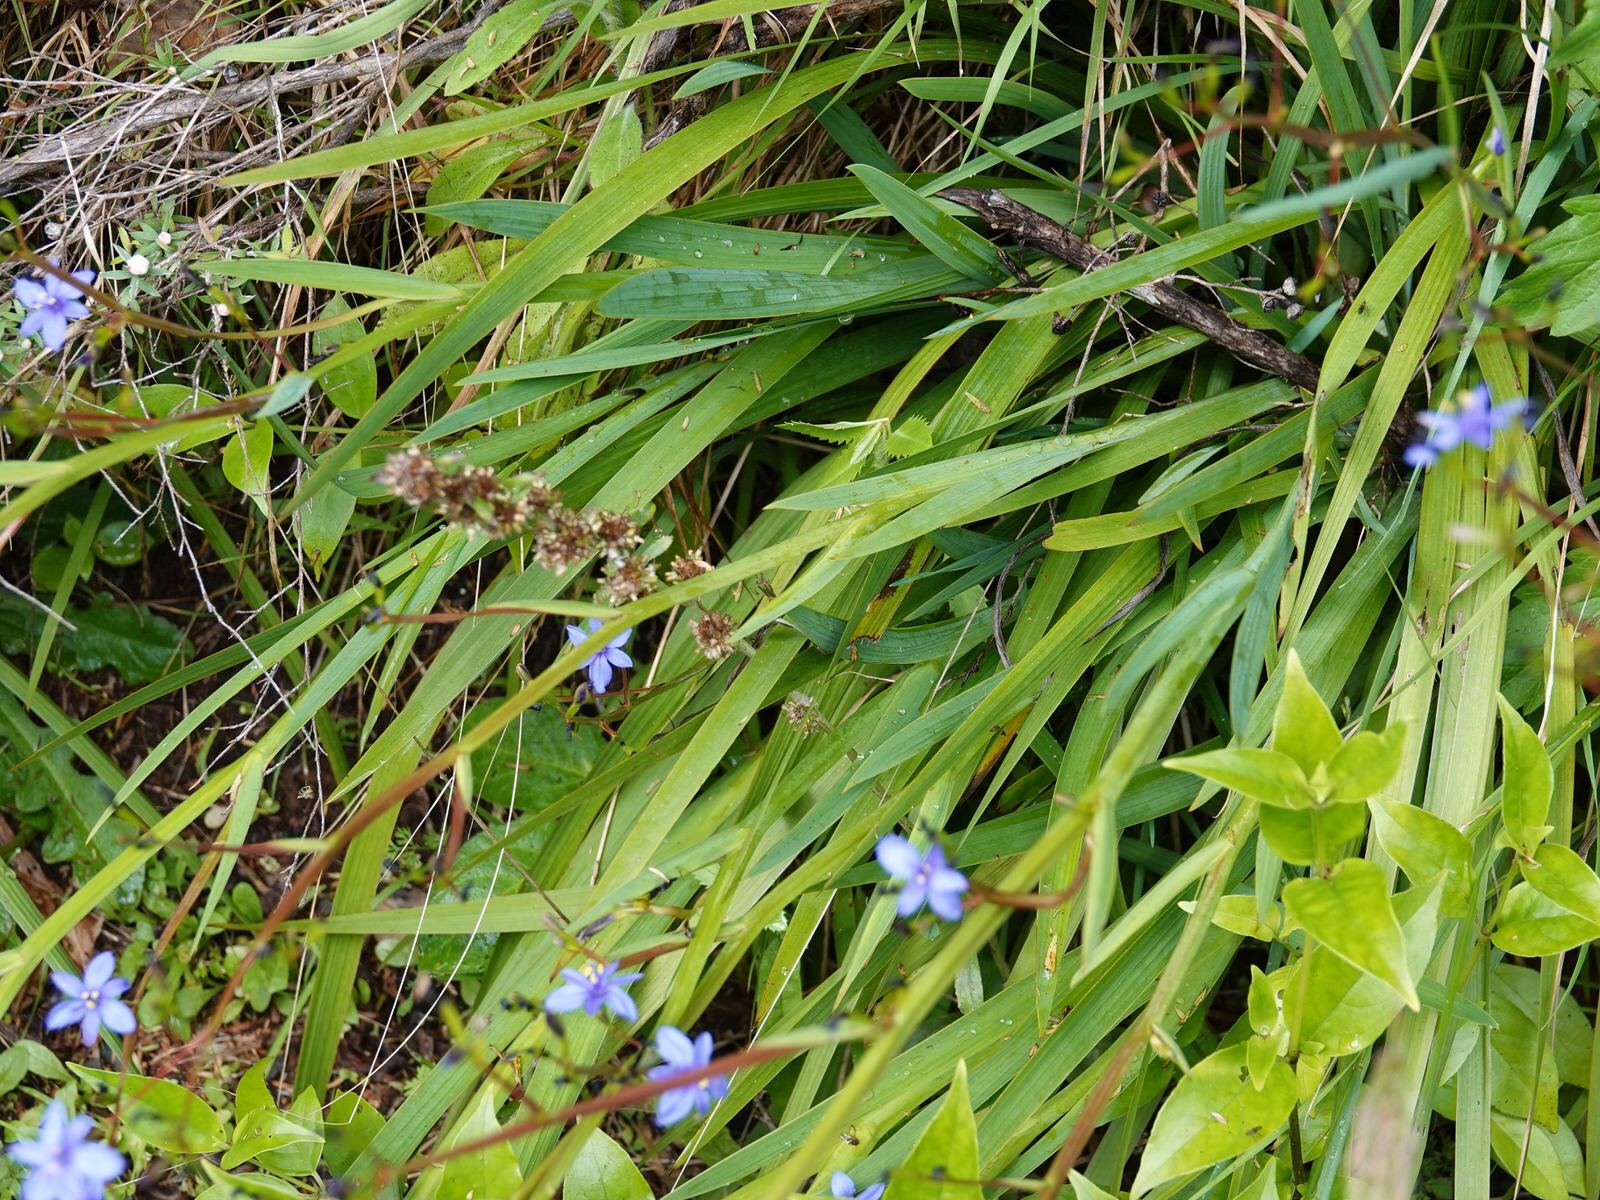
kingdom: Plantae
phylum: Tracheophyta
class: Liliopsida
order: Asparagales
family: Iridaceae
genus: Aristea
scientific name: Aristea ecklonii
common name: Blue corn-lily
